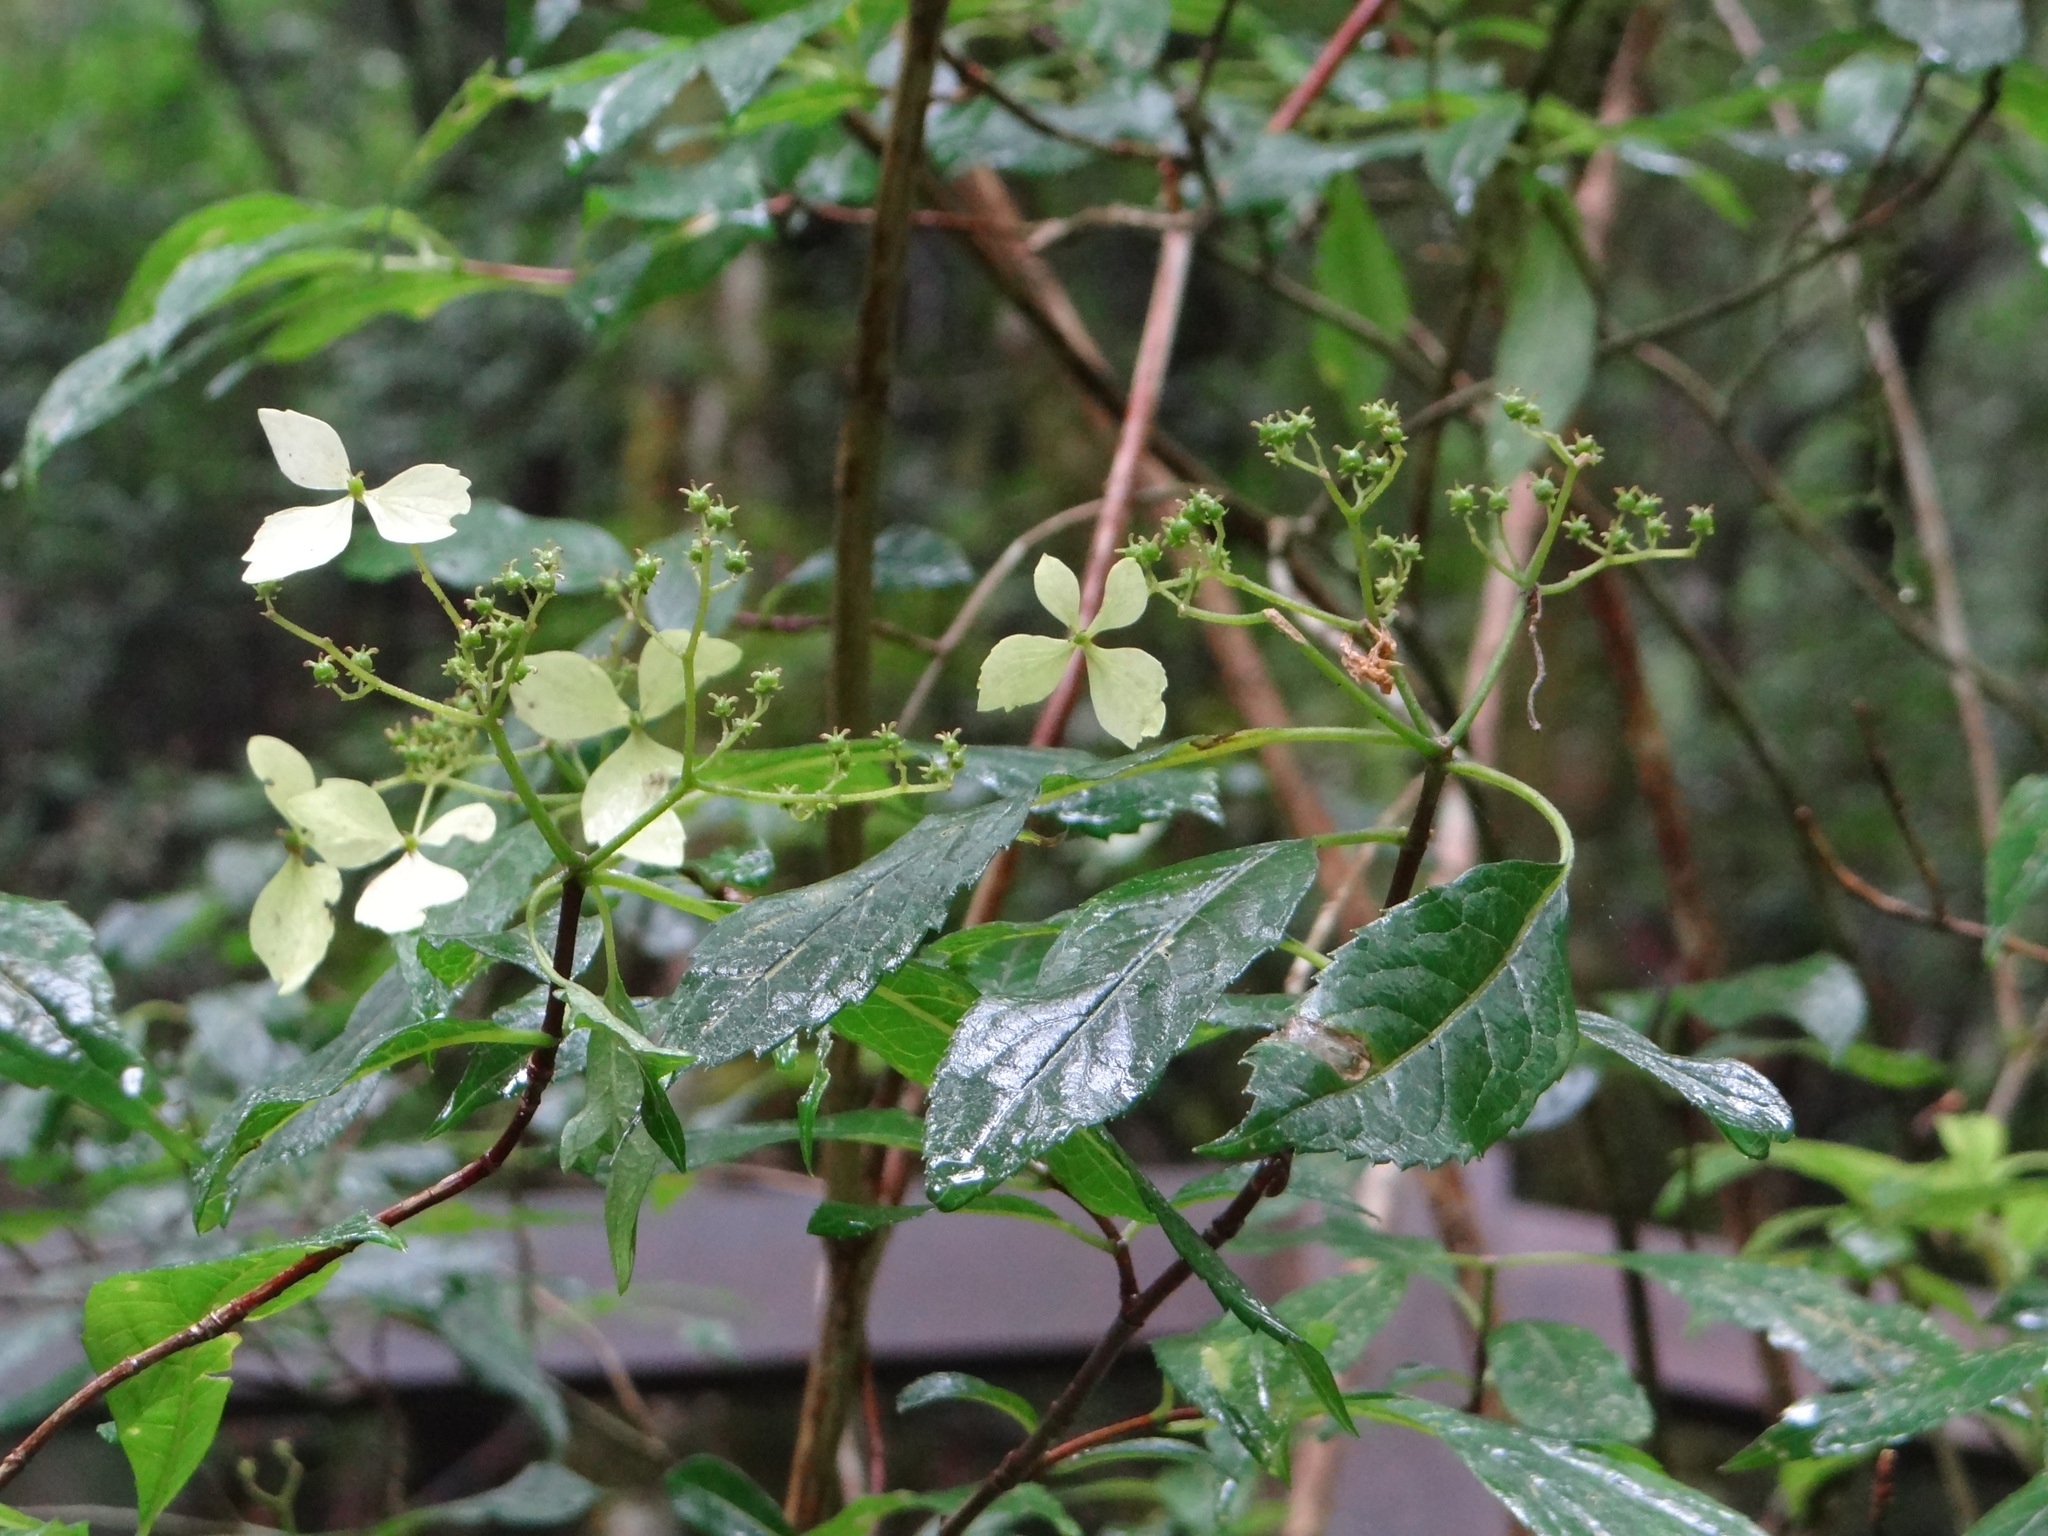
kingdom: Plantae
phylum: Tracheophyta
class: Magnoliopsida
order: Cornales
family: Hydrangeaceae
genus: Hydrangea
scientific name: Hydrangea chinensis
